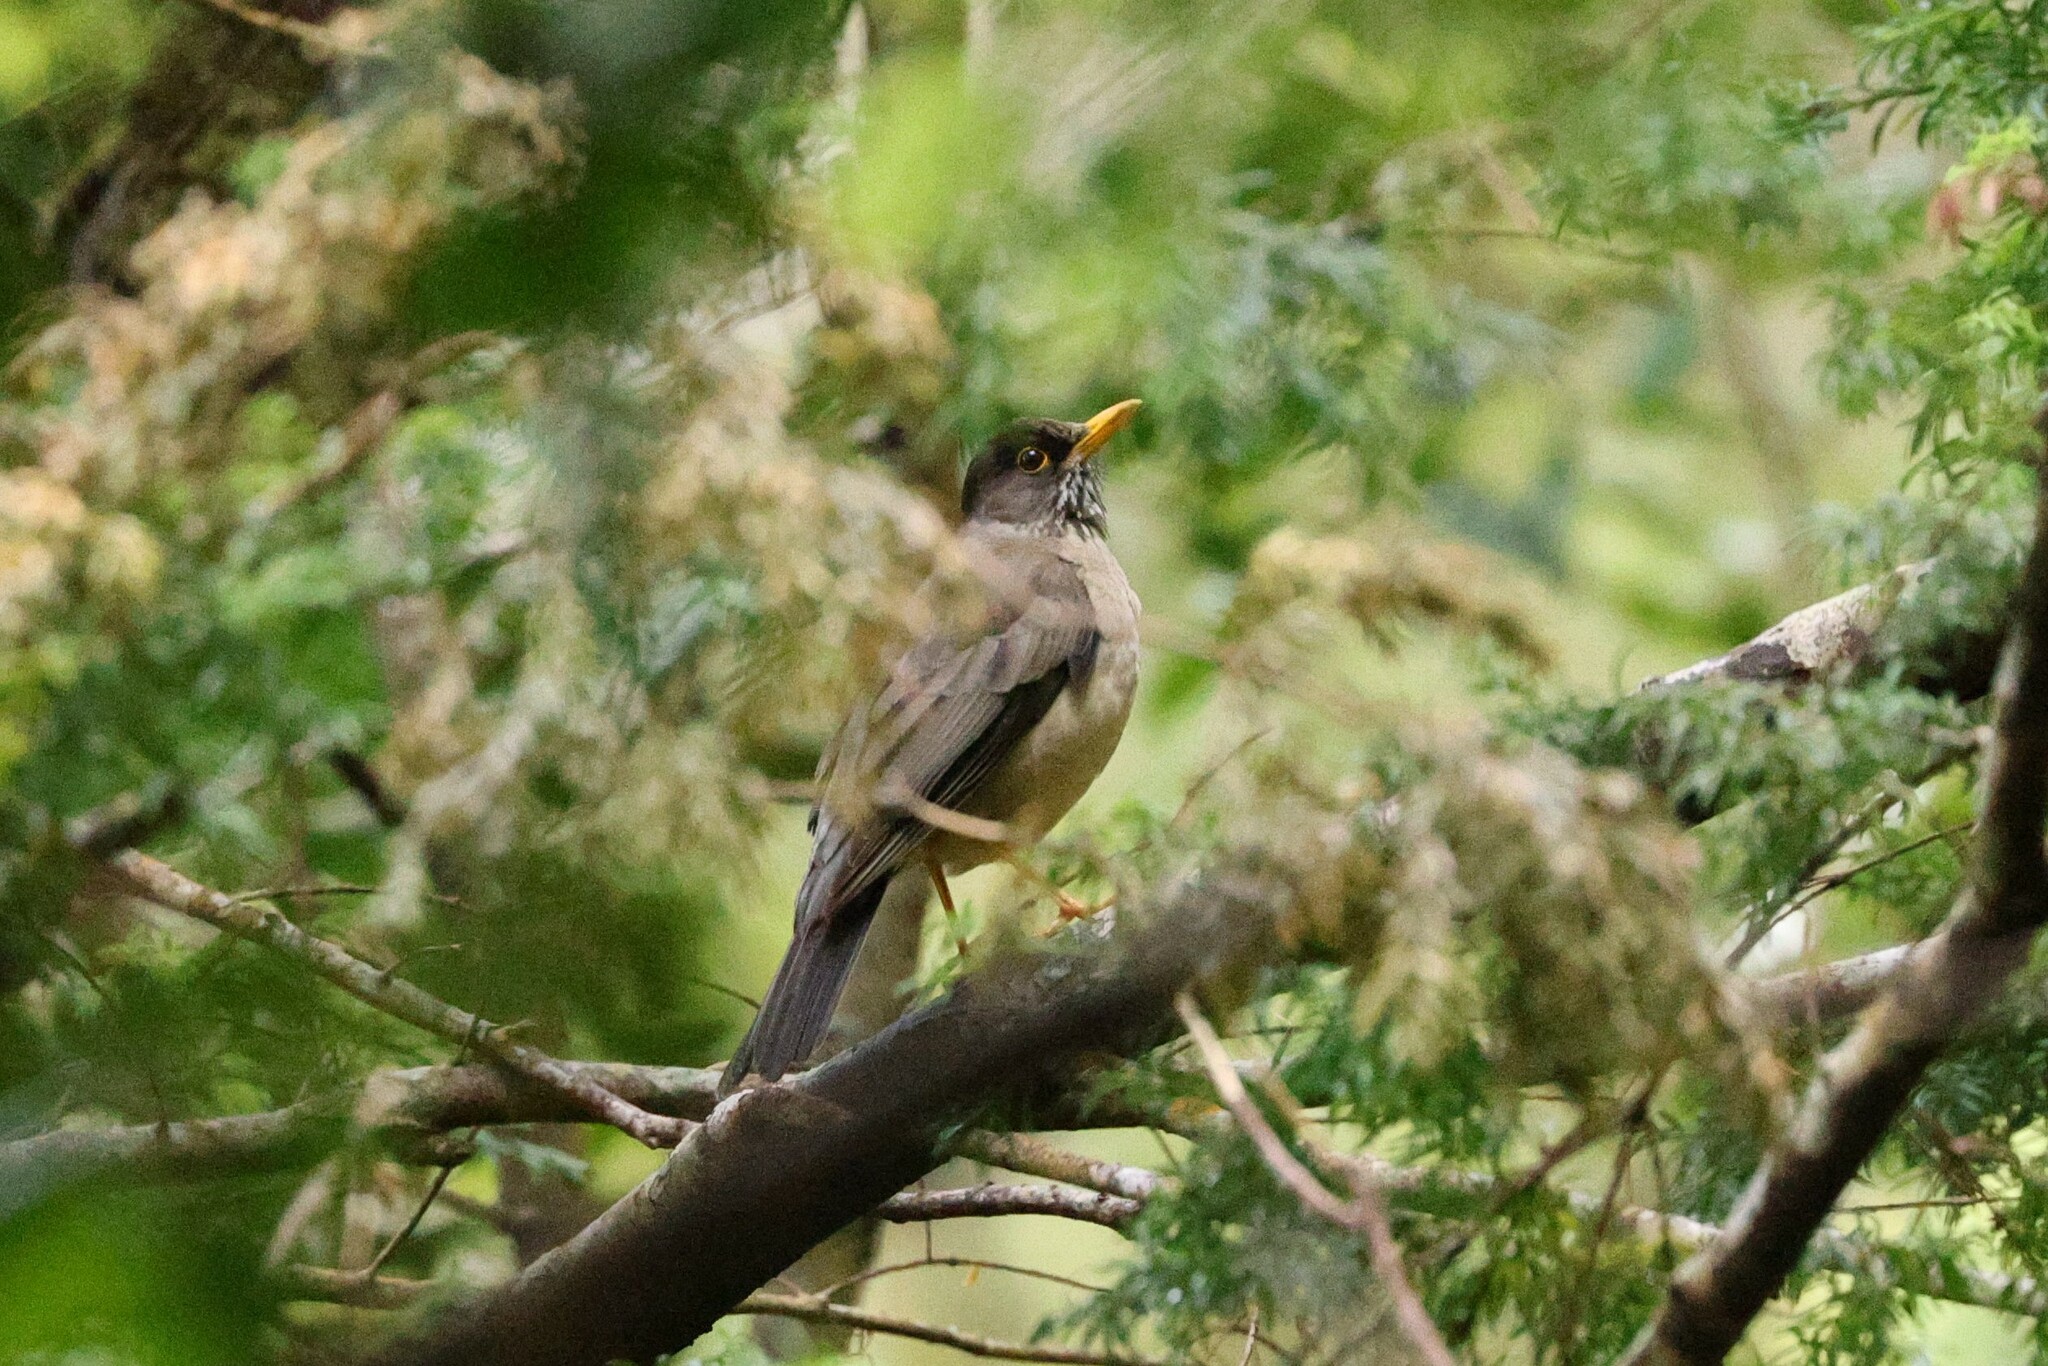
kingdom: Animalia
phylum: Chordata
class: Aves
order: Passeriformes
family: Turdidae
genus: Turdus
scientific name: Turdus falcklandii
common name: Austral thrush
